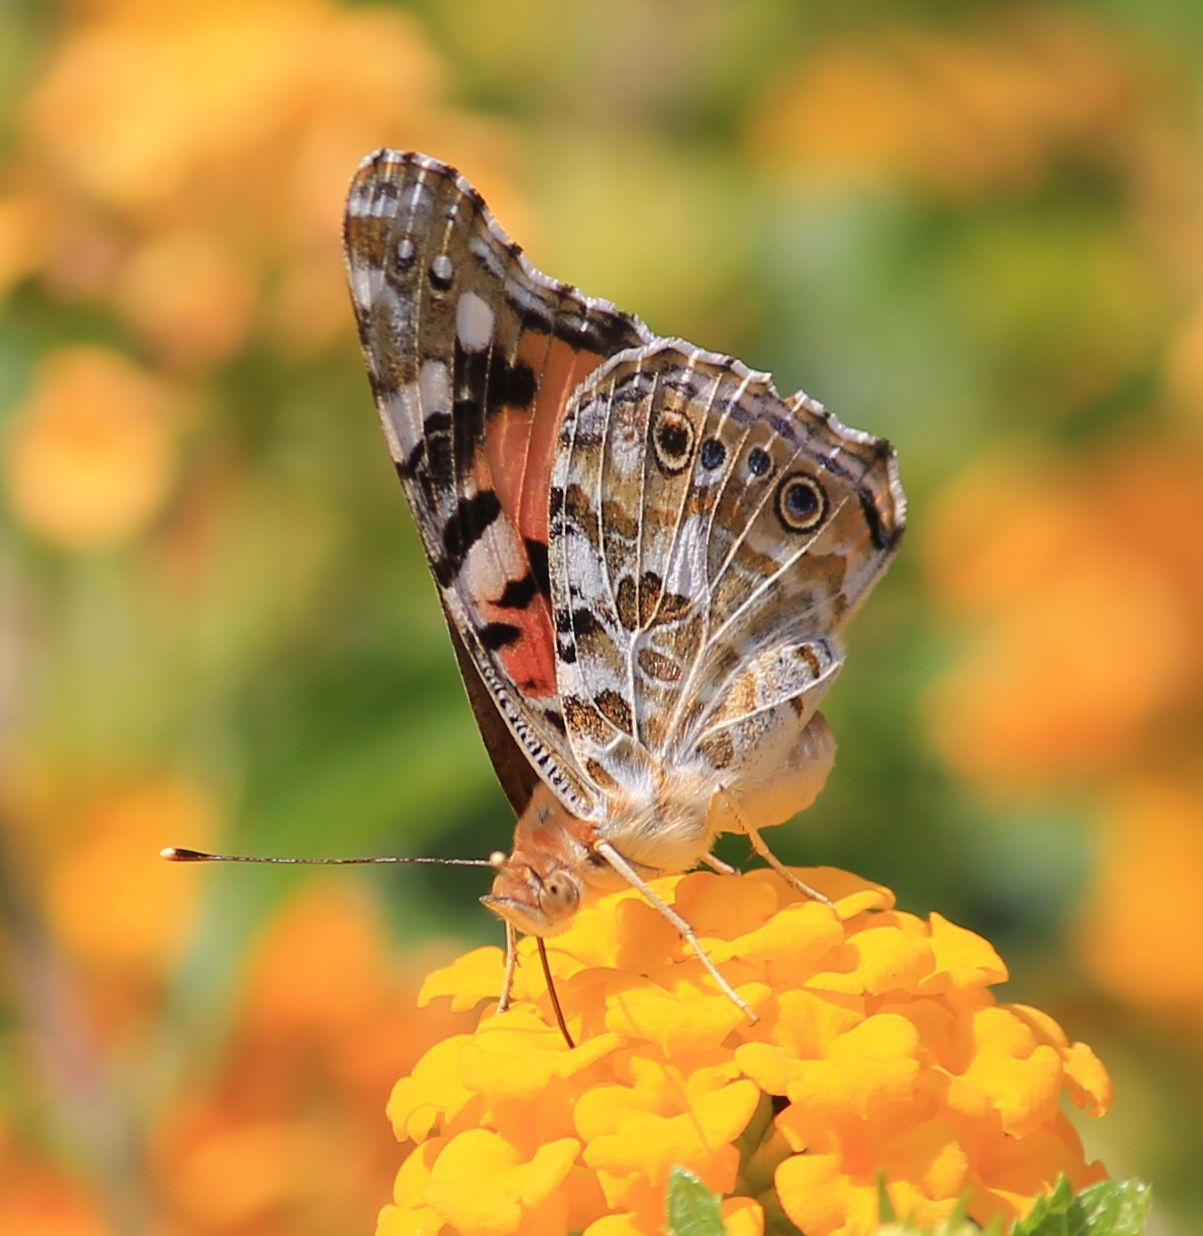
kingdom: Animalia
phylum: Arthropoda
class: Insecta
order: Lepidoptera
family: Nymphalidae
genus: Vanessa
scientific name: Vanessa cardui
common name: Painted lady
